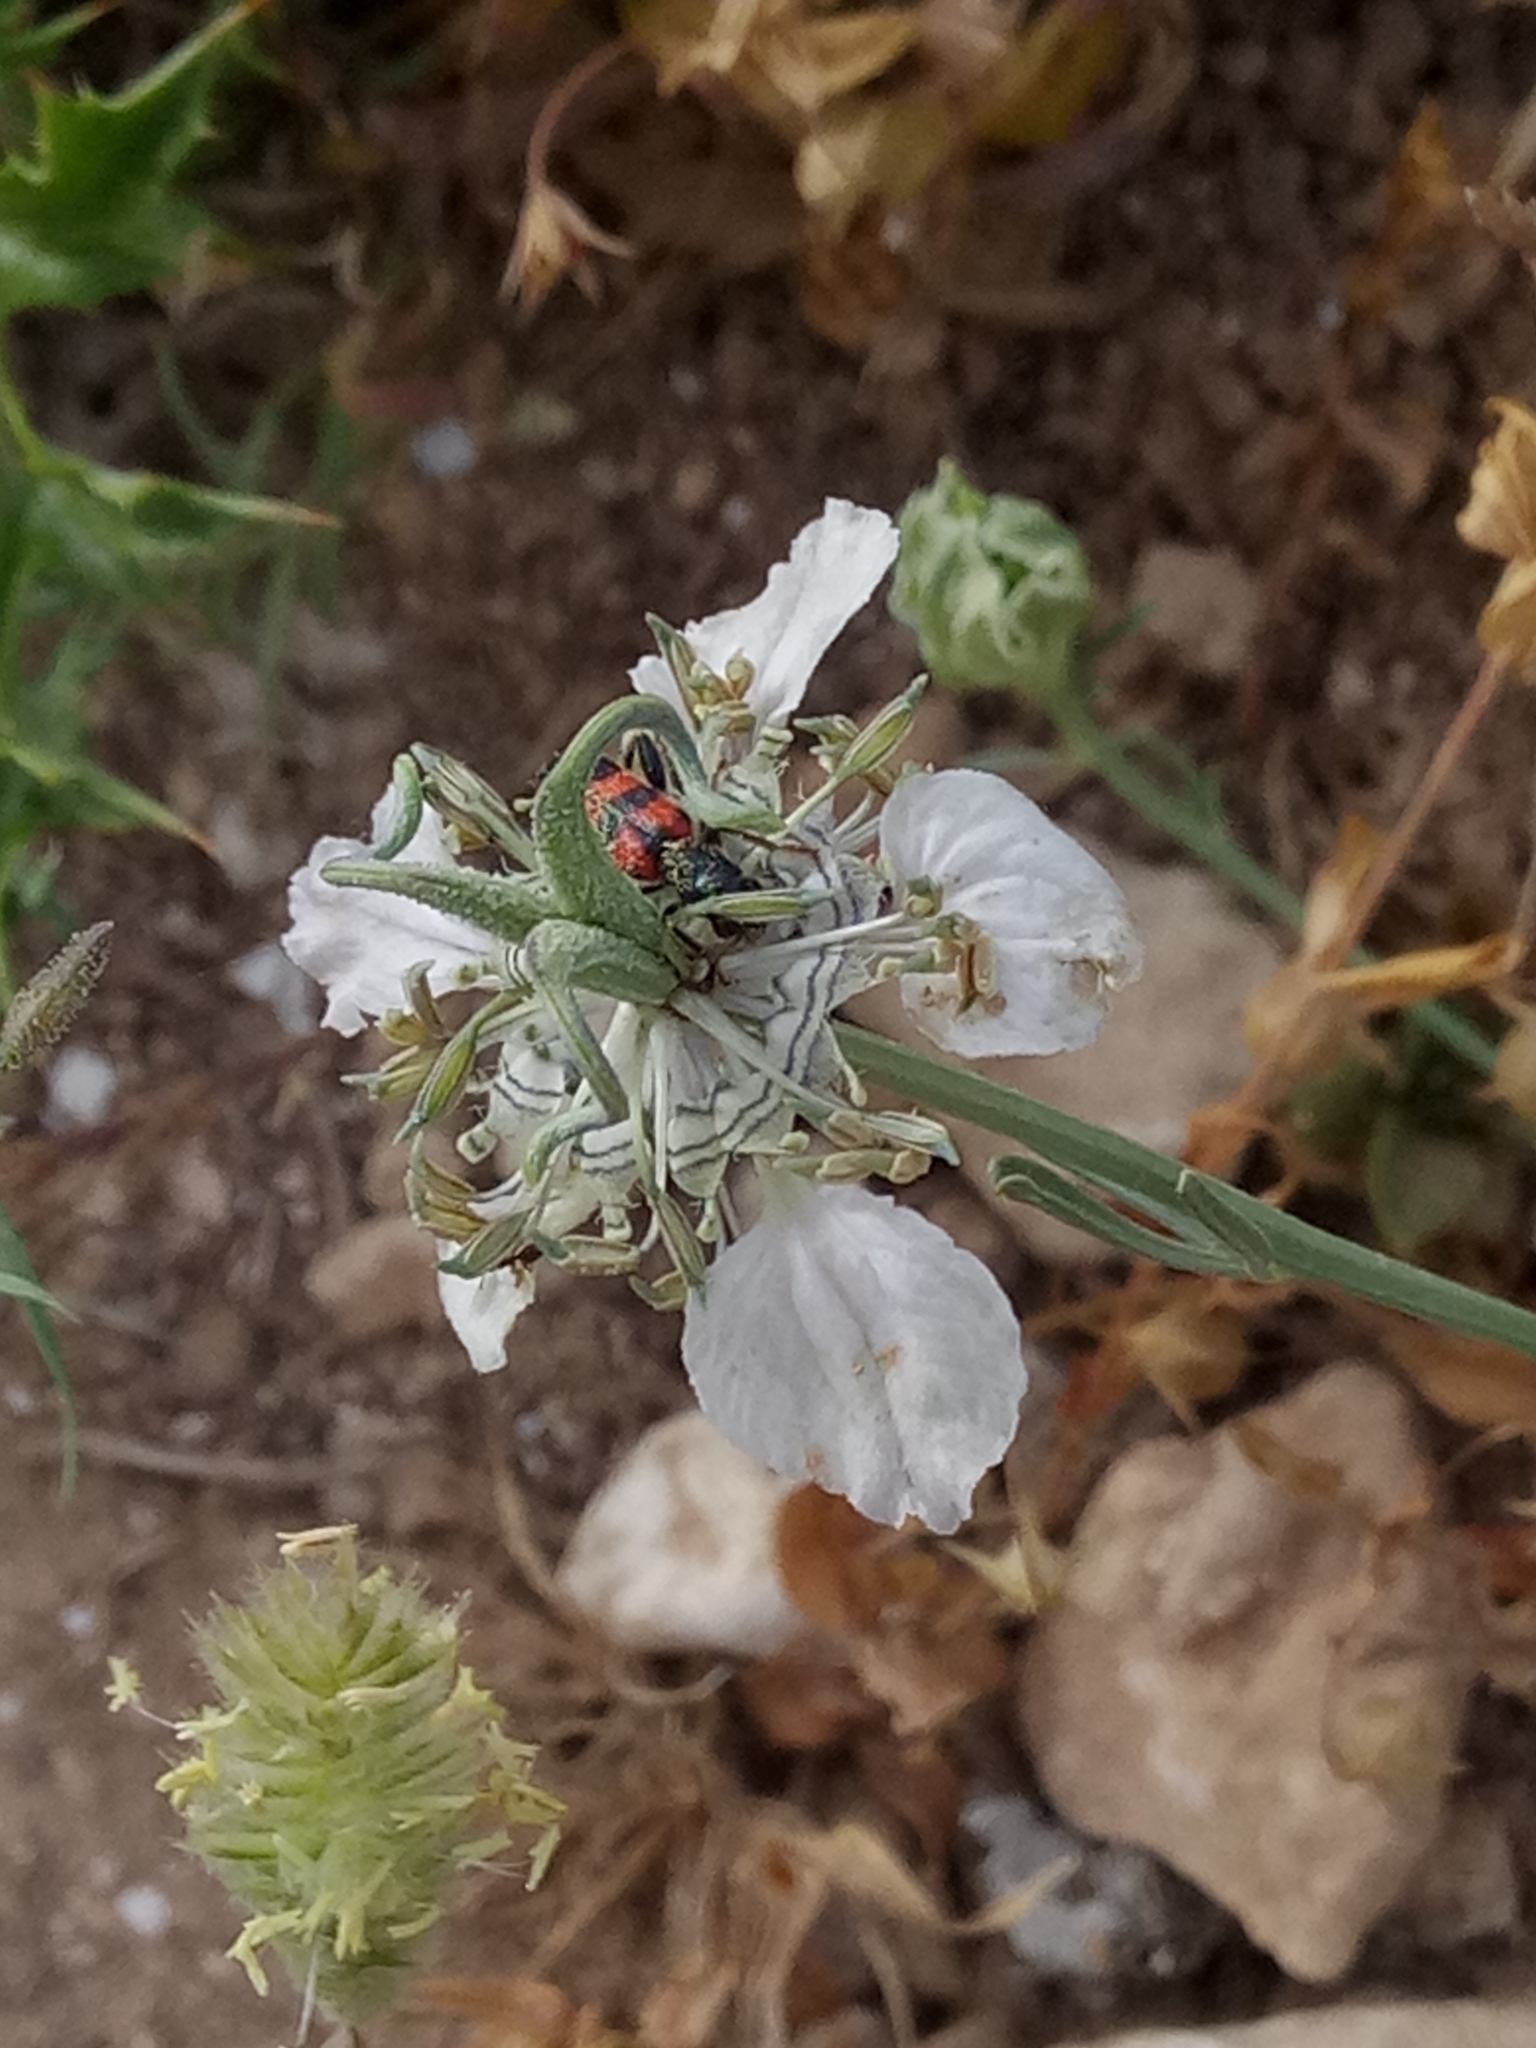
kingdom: Plantae
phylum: Tracheophyta
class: Magnoliopsida
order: Ranunculales
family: Ranunculaceae
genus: Nigella
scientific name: Nigella arvensis
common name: Wild fennel-flower
